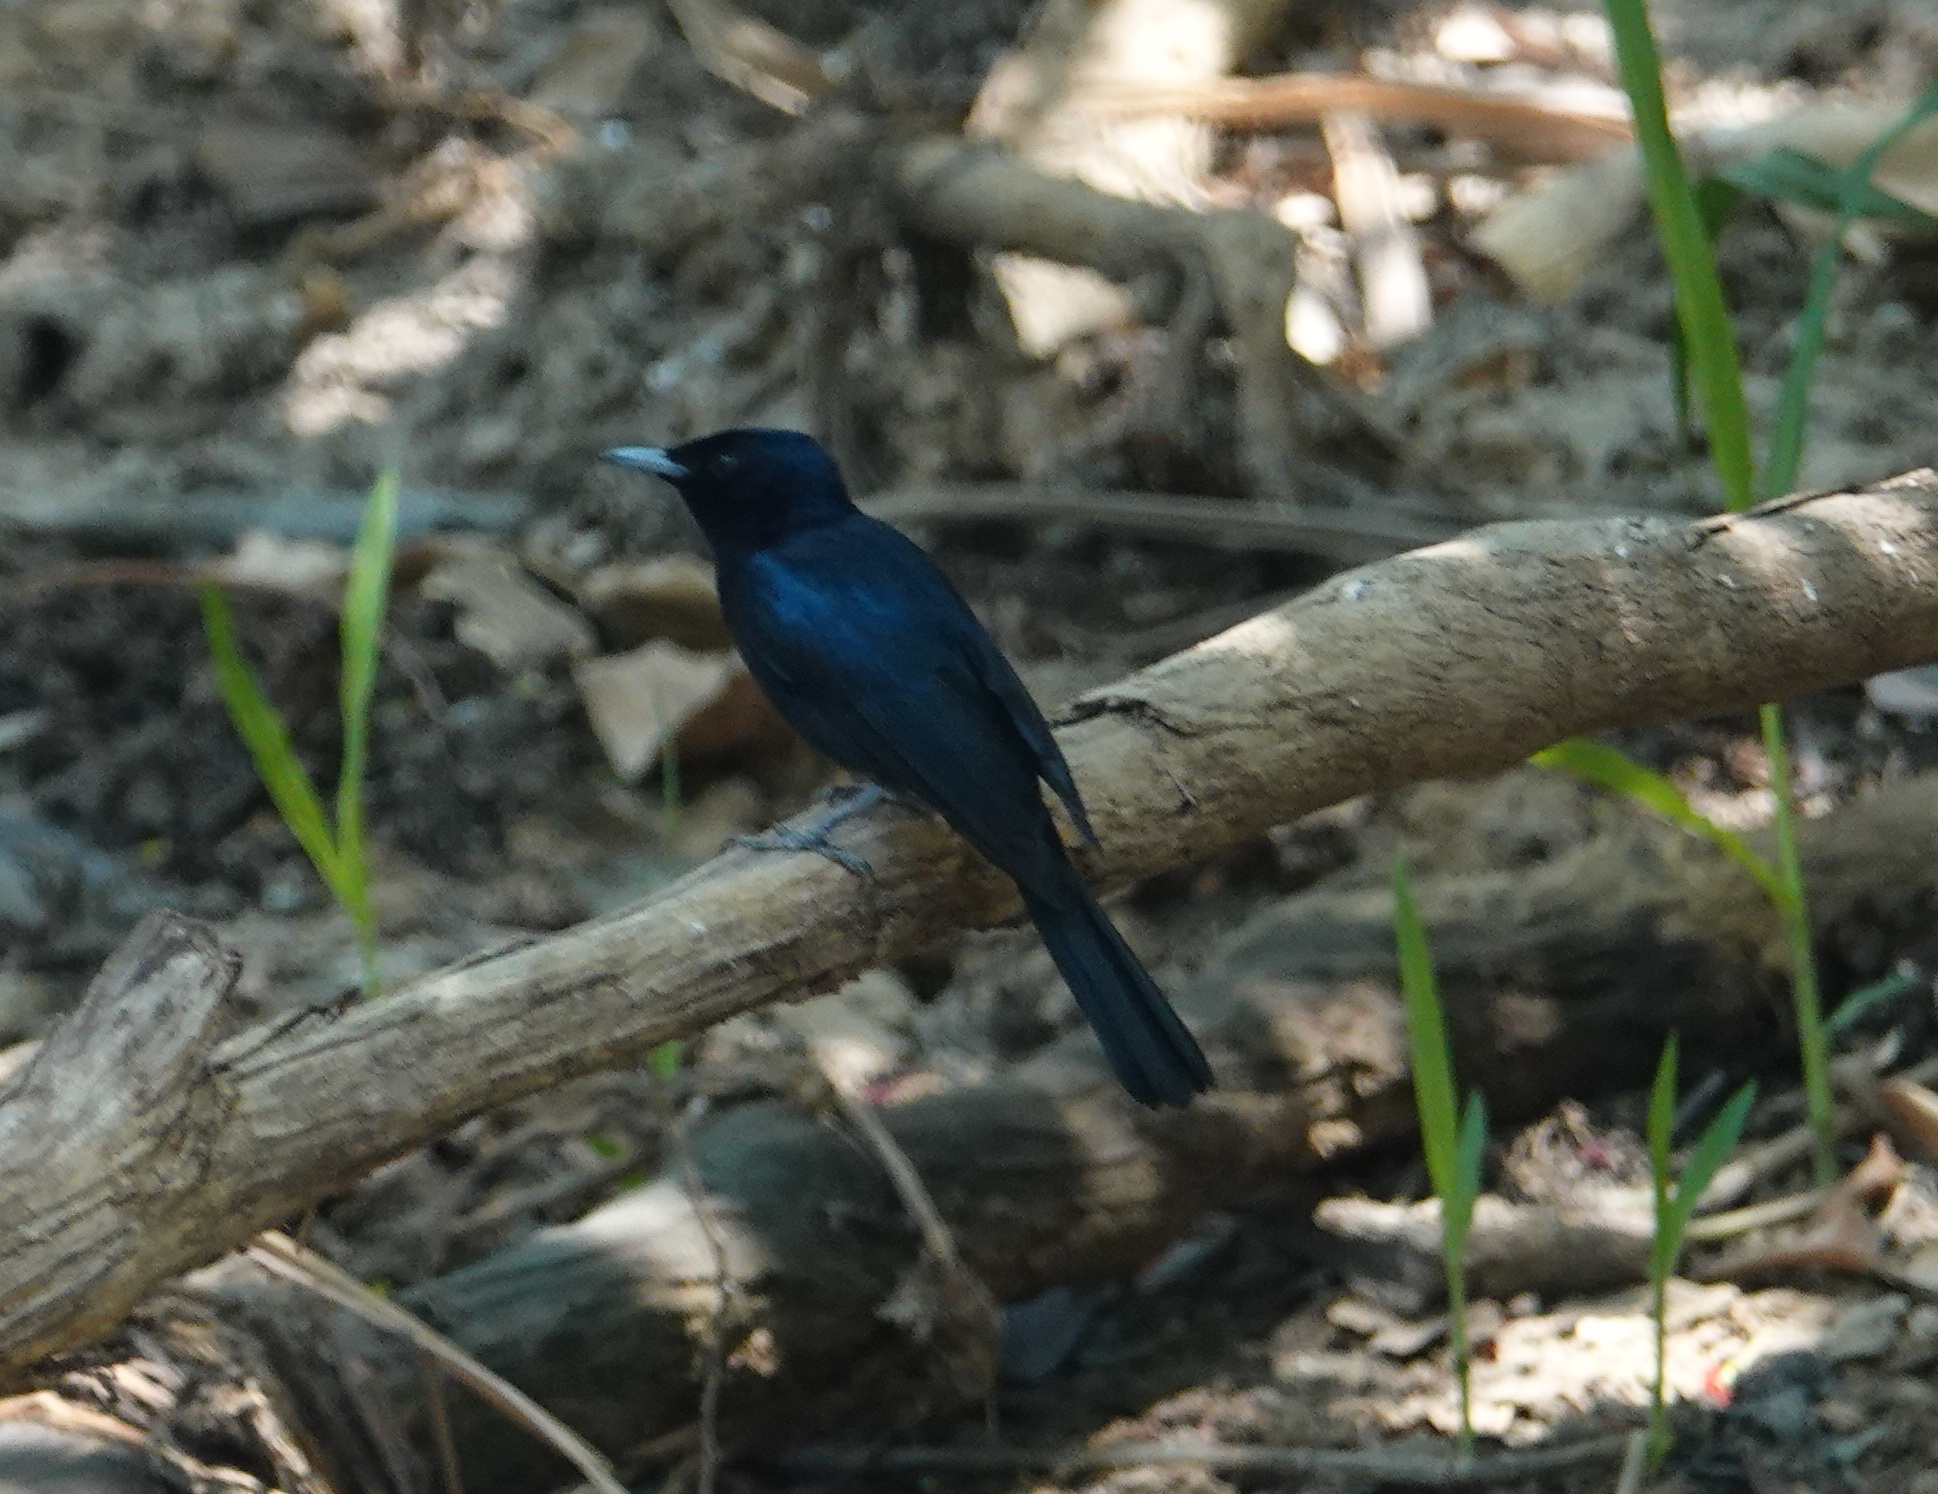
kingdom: Animalia
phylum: Chordata
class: Aves
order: Passeriformes
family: Monarchidae
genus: Myiagra
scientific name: Myiagra alecto
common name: Shining flycatcher
